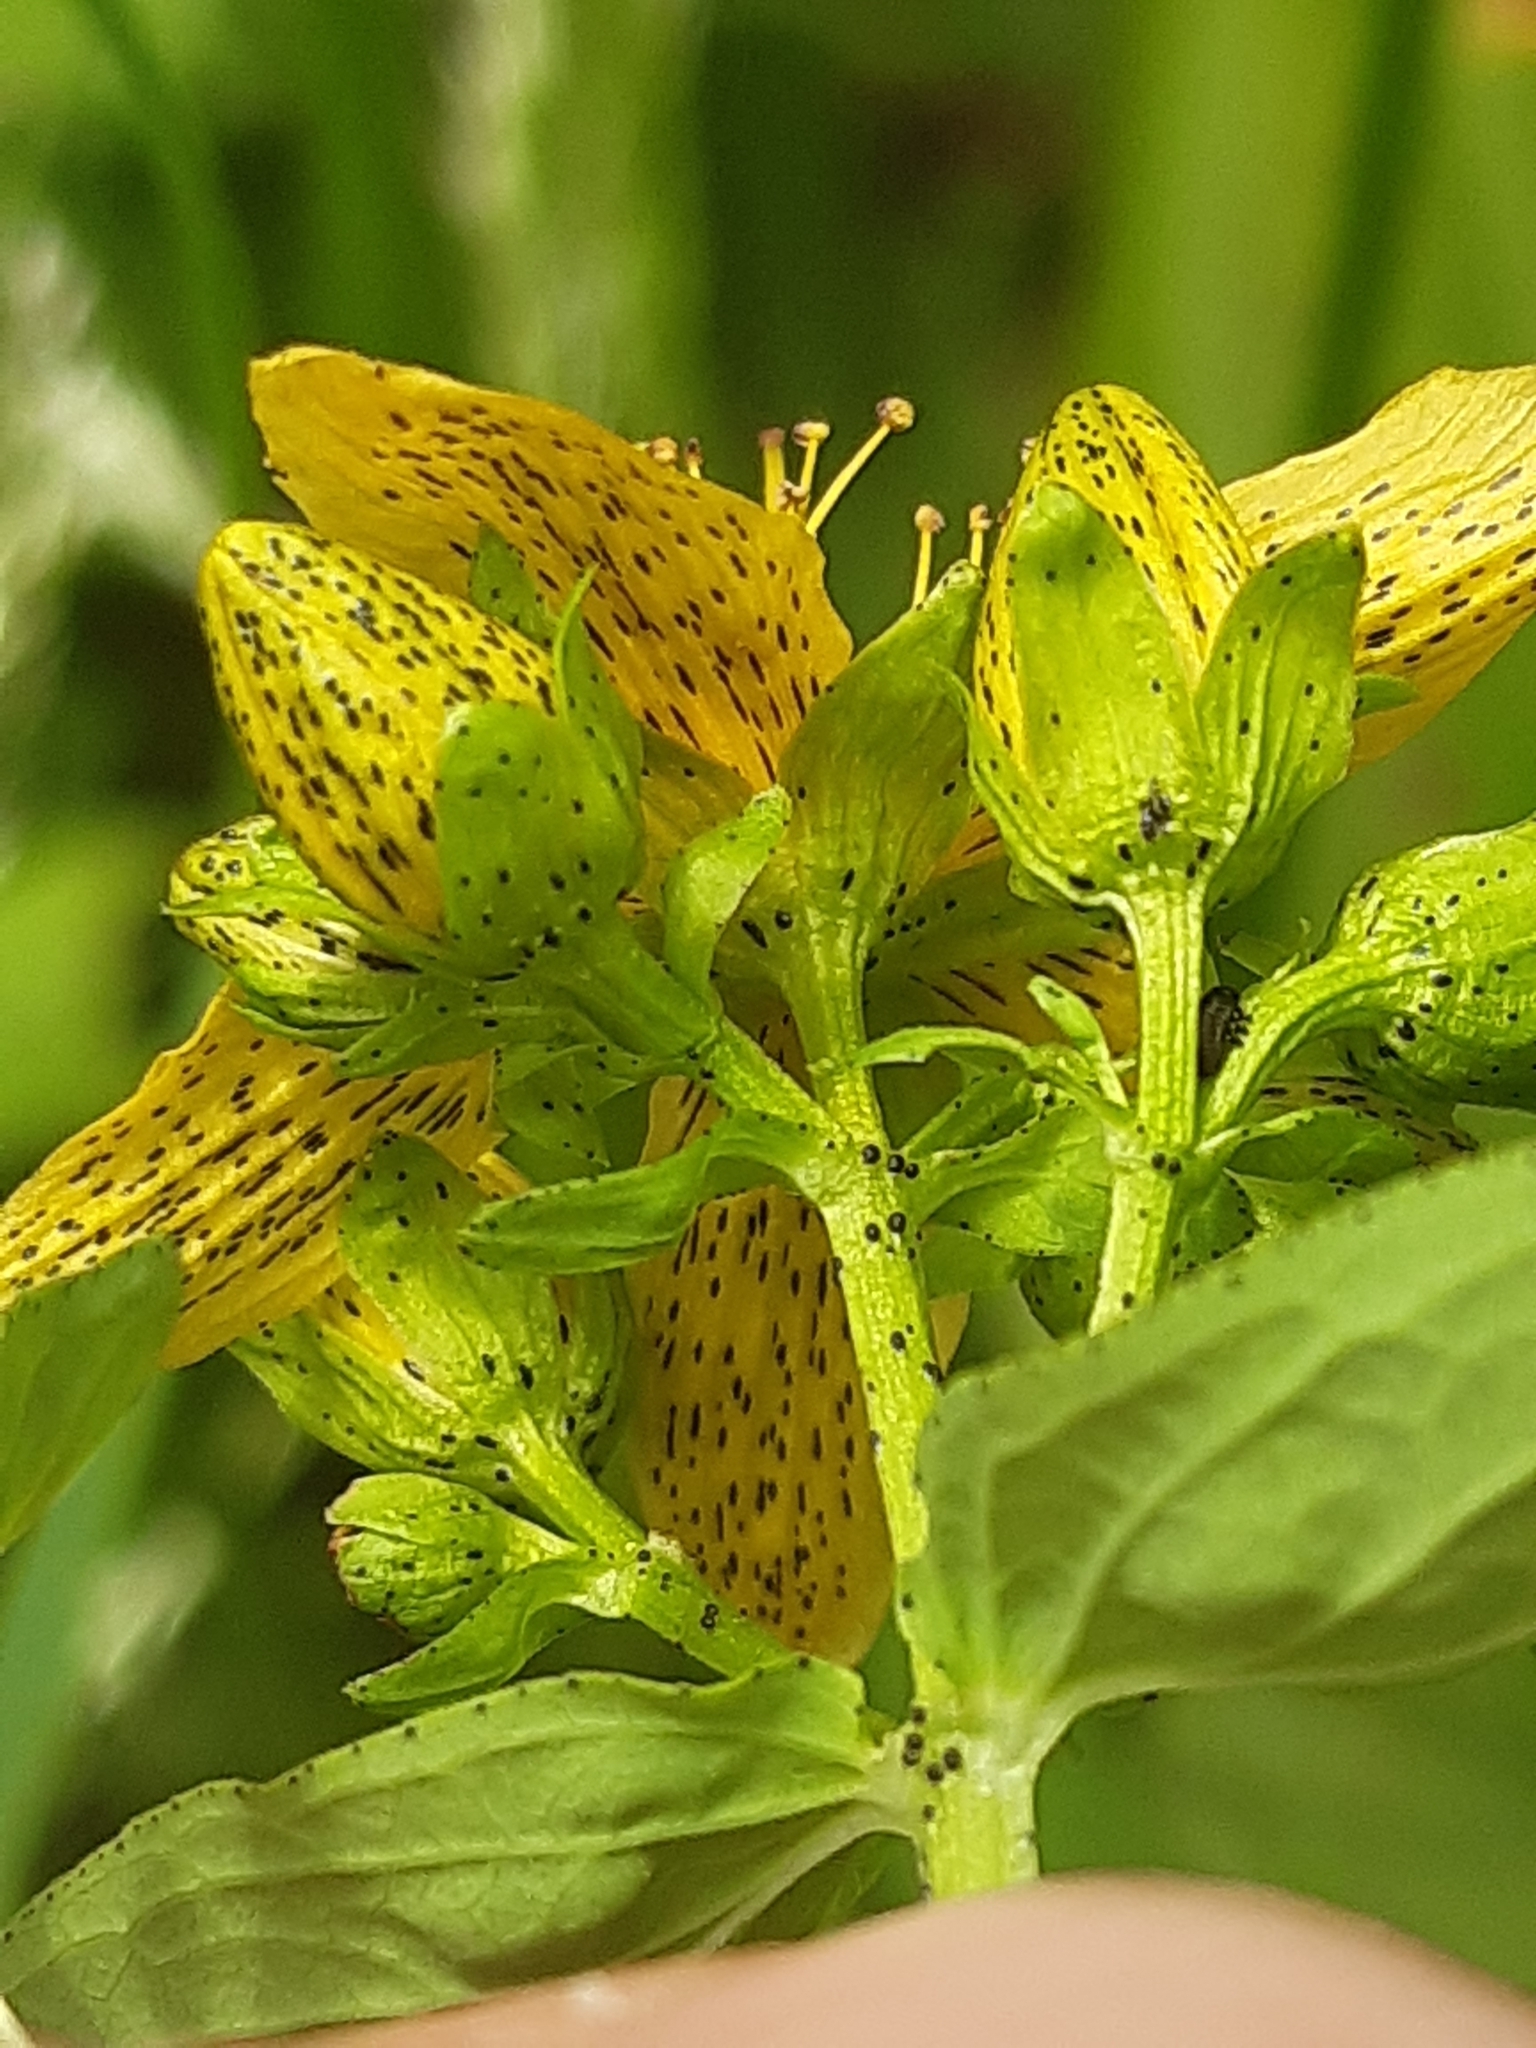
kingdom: Plantae
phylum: Tracheophyta
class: Magnoliopsida
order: Malpighiales
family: Hypericaceae
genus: Hypericum
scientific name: Hypericum maculatum
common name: Imperforate st. john's-wort
